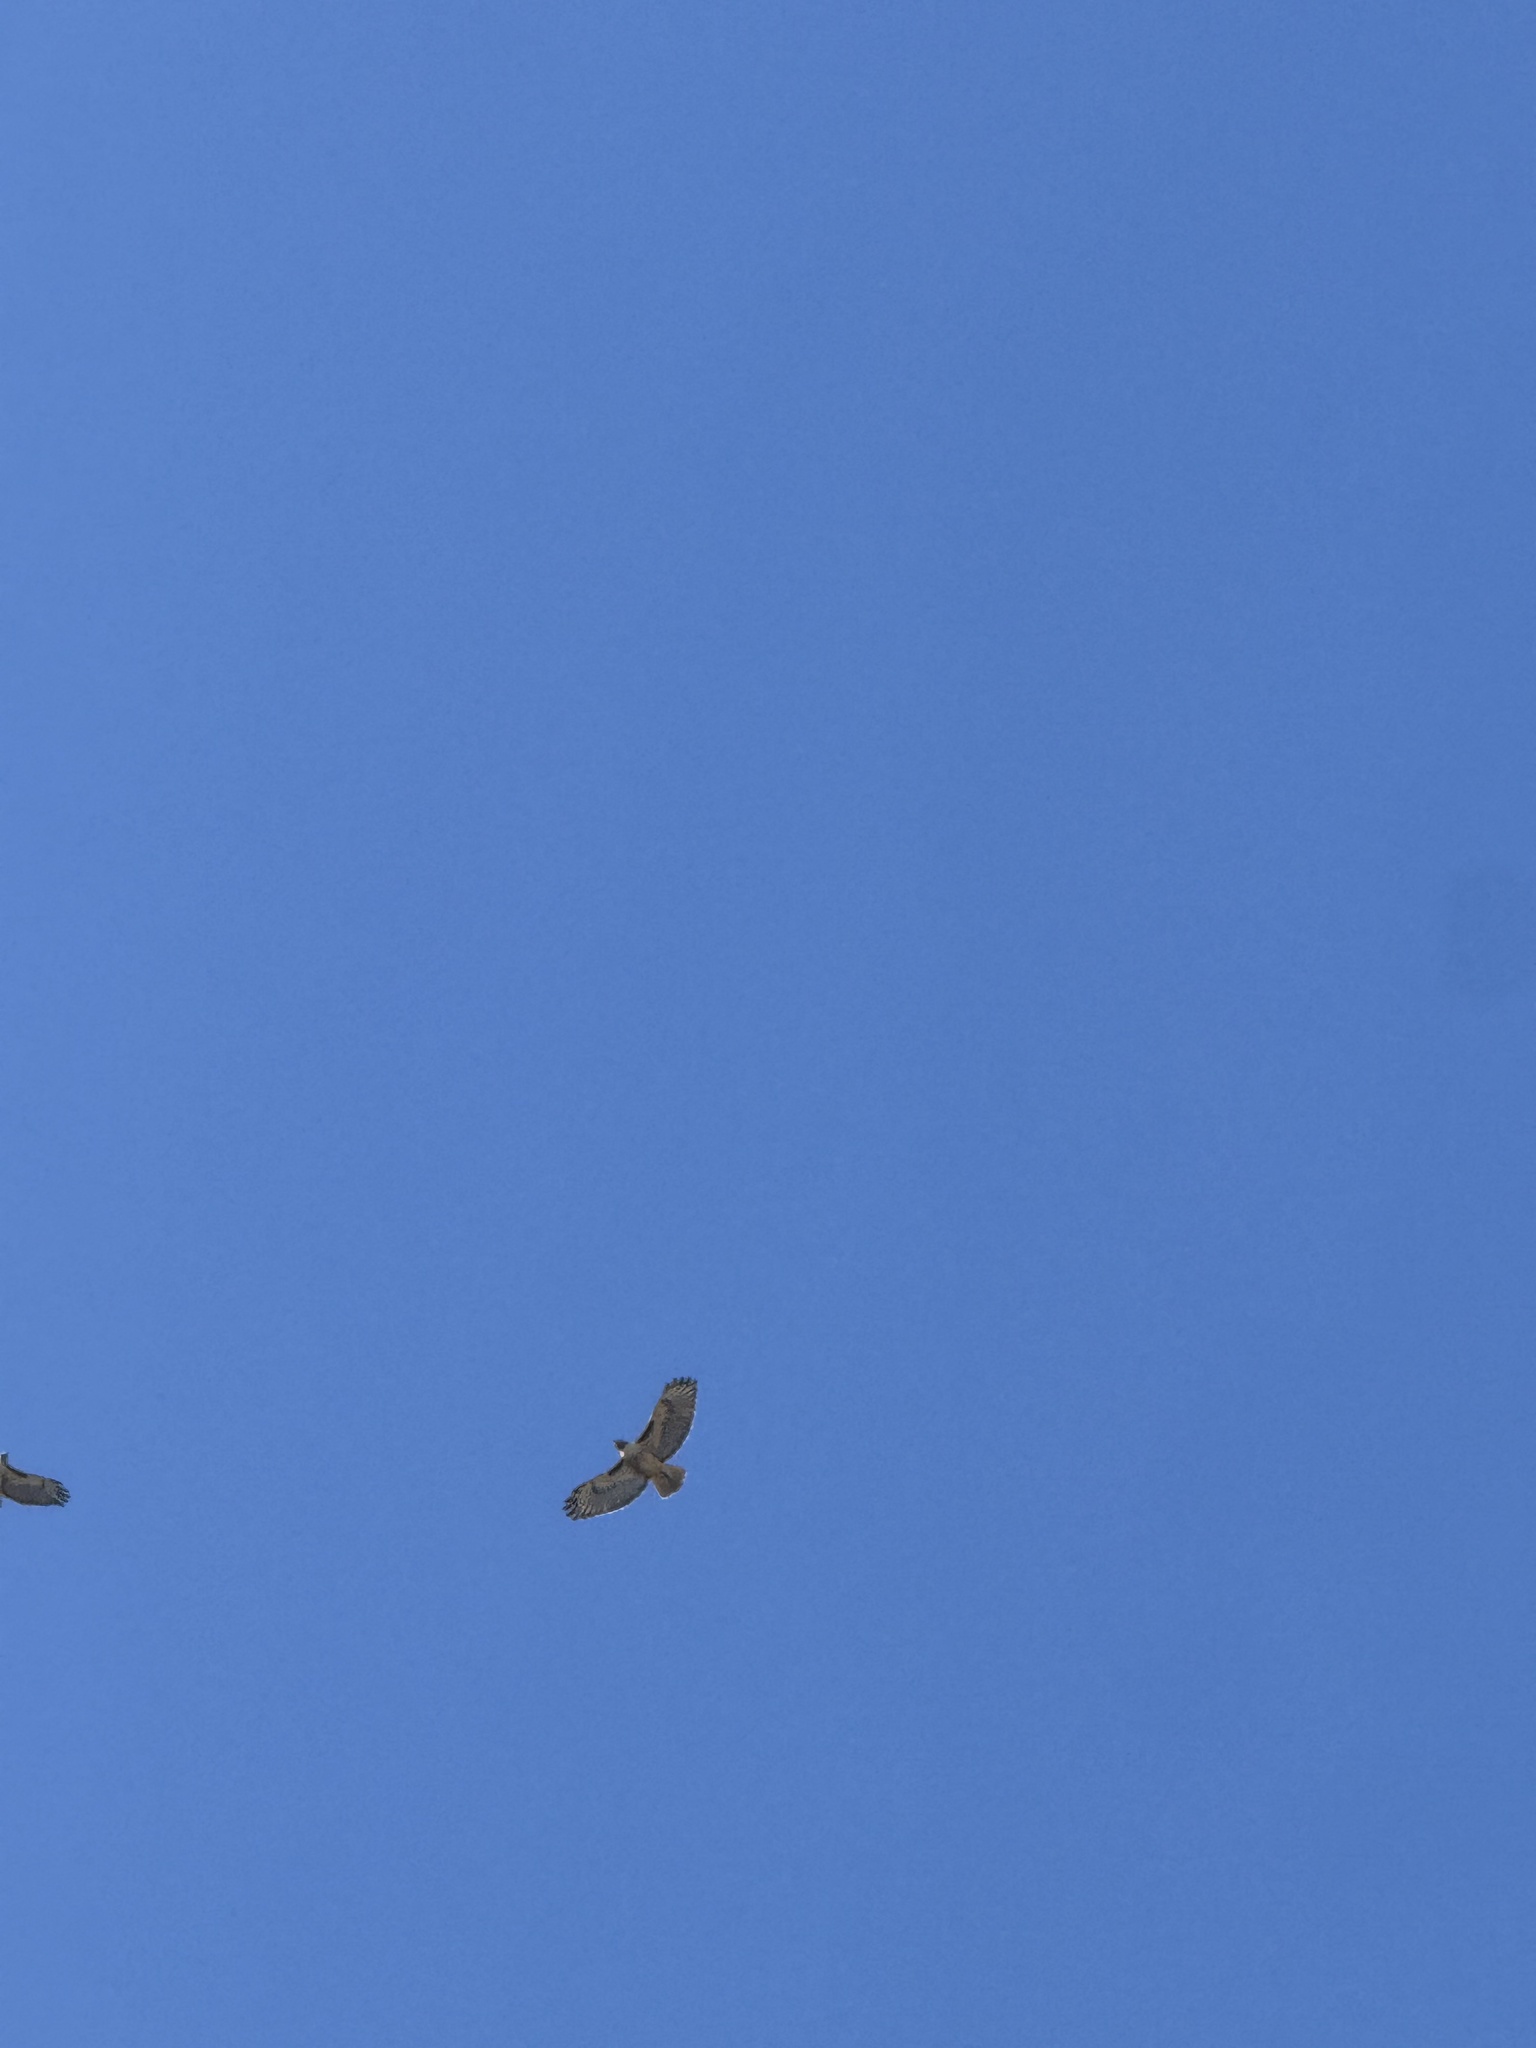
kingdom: Animalia
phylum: Chordata
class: Aves
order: Accipitriformes
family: Accipitridae
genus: Buteo
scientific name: Buteo jamaicensis
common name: Red-tailed hawk
